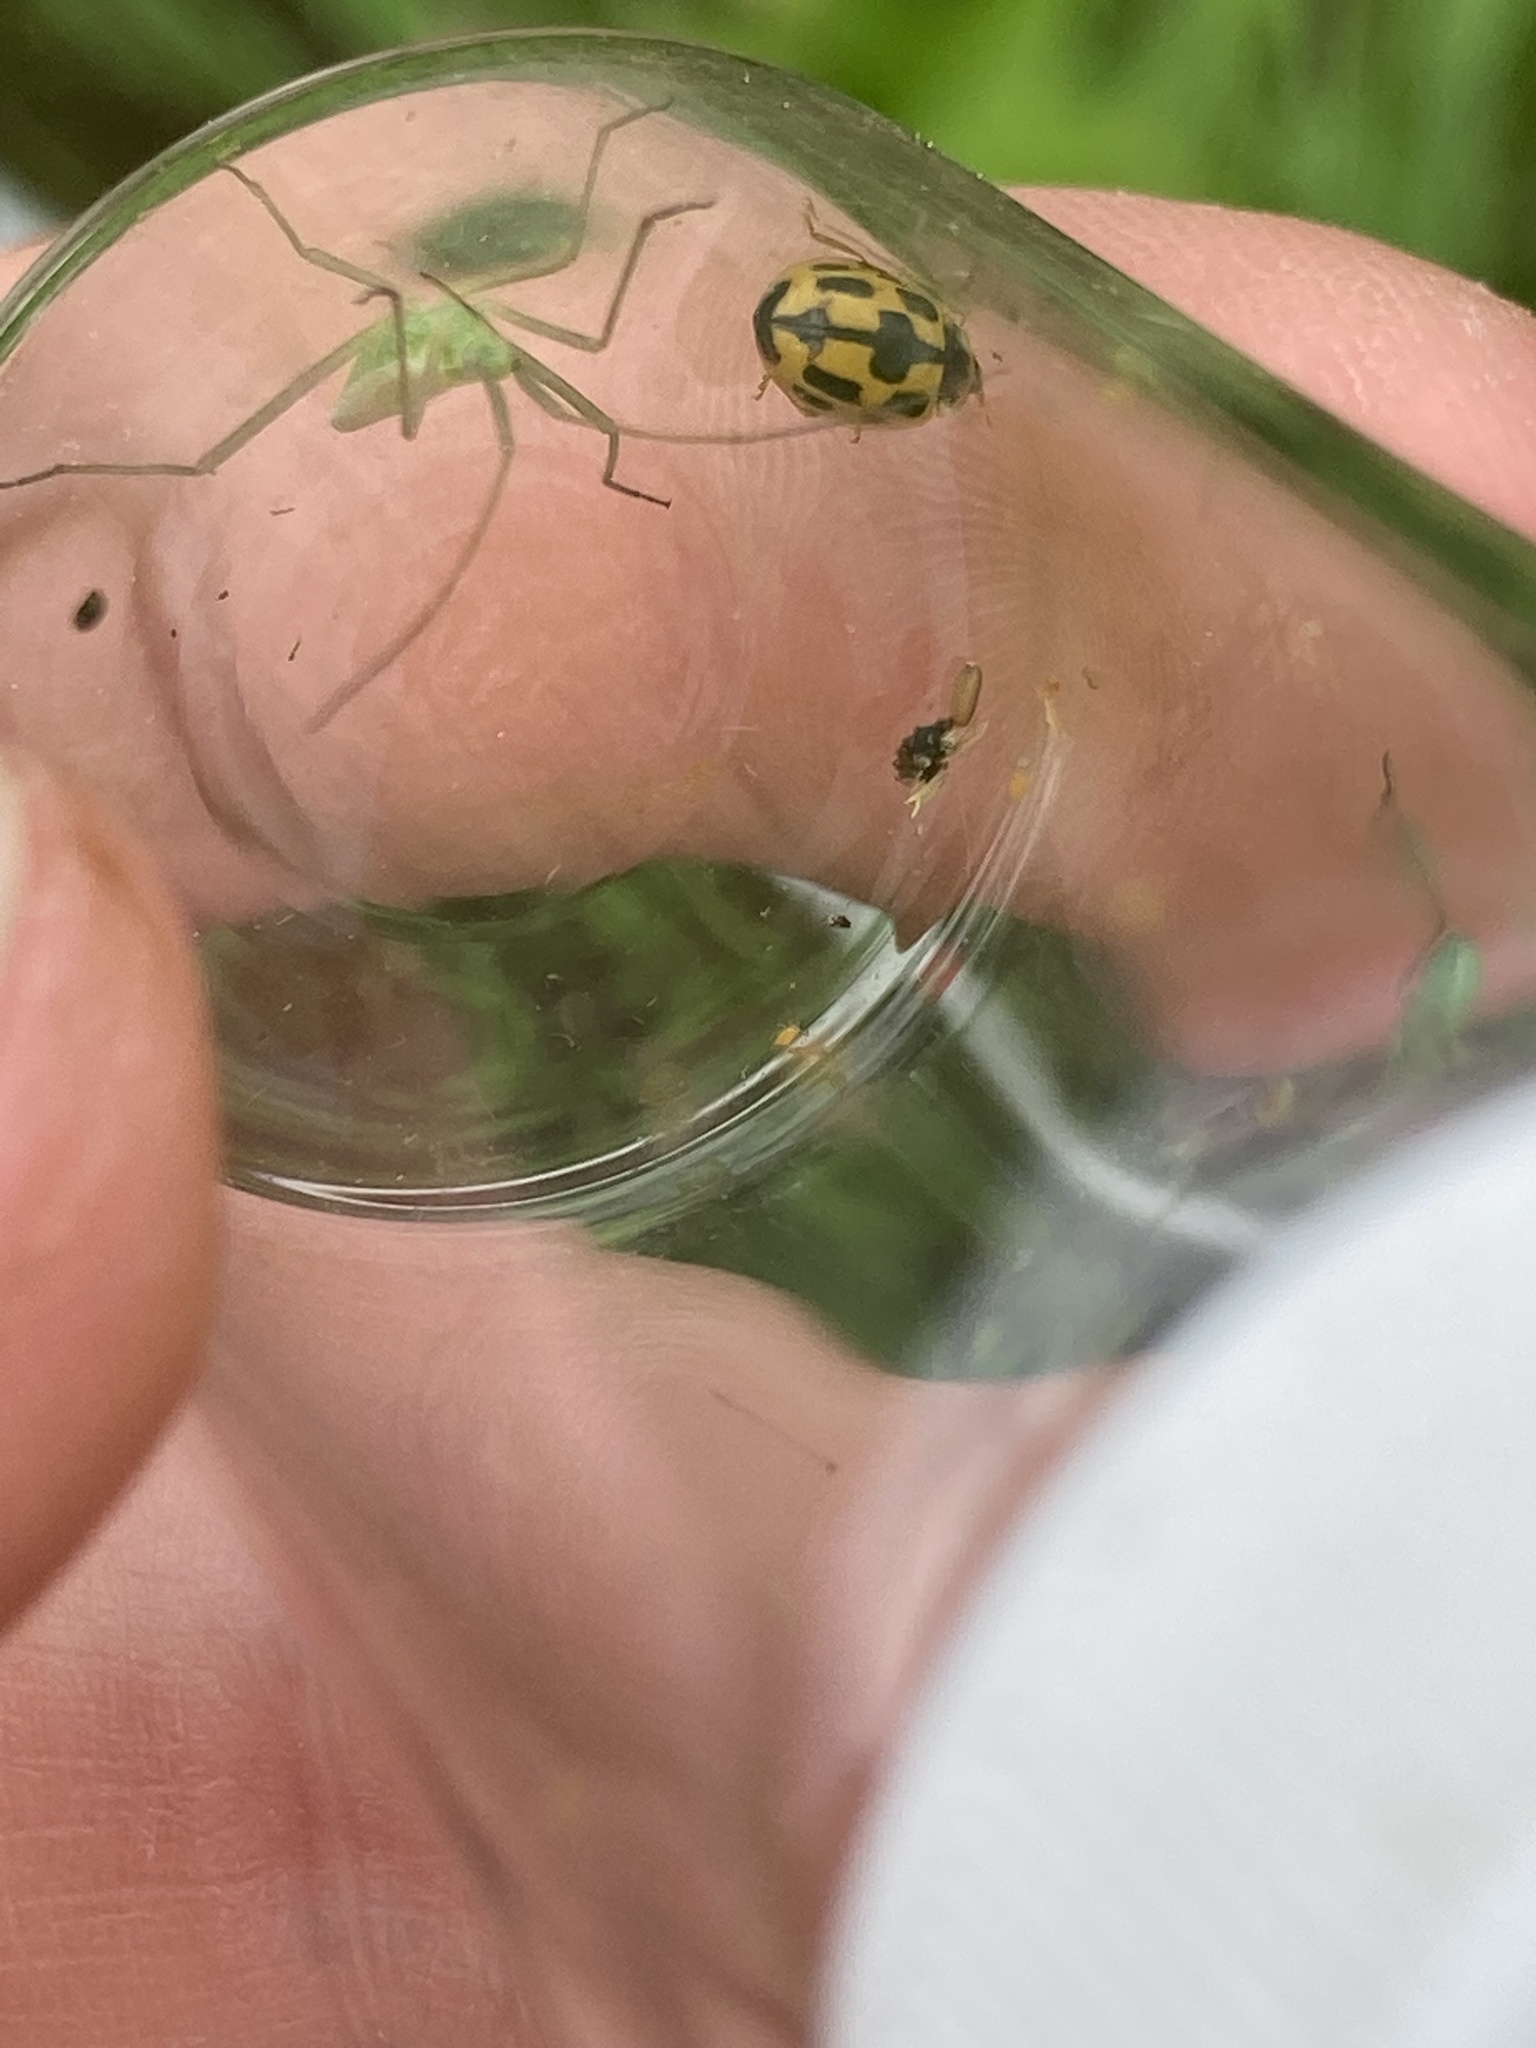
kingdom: Animalia
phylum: Arthropoda
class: Insecta
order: Coleoptera
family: Coccinellidae
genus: Propylaea
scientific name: Propylaea quatuordecimpunctata
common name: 14-spotted ladybird beetle
